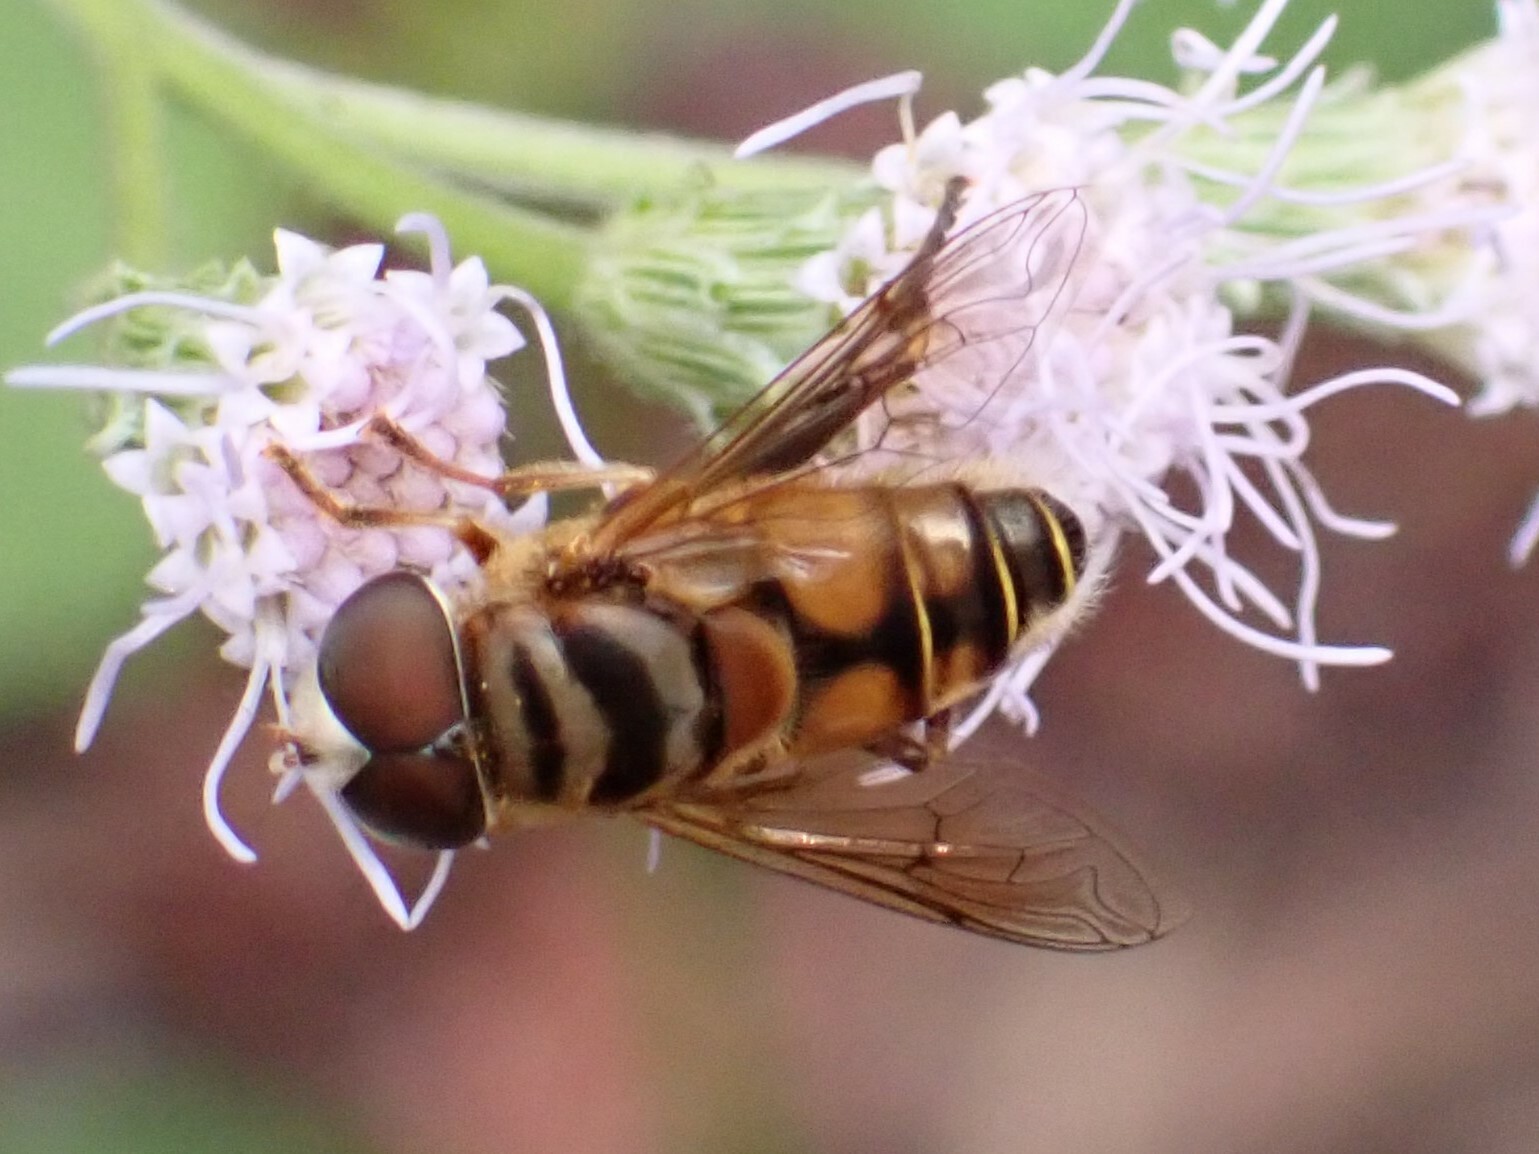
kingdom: Animalia
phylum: Arthropoda
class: Insecta
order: Diptera
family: Syrphidae
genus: Palpada
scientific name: Palpada vinetorum
